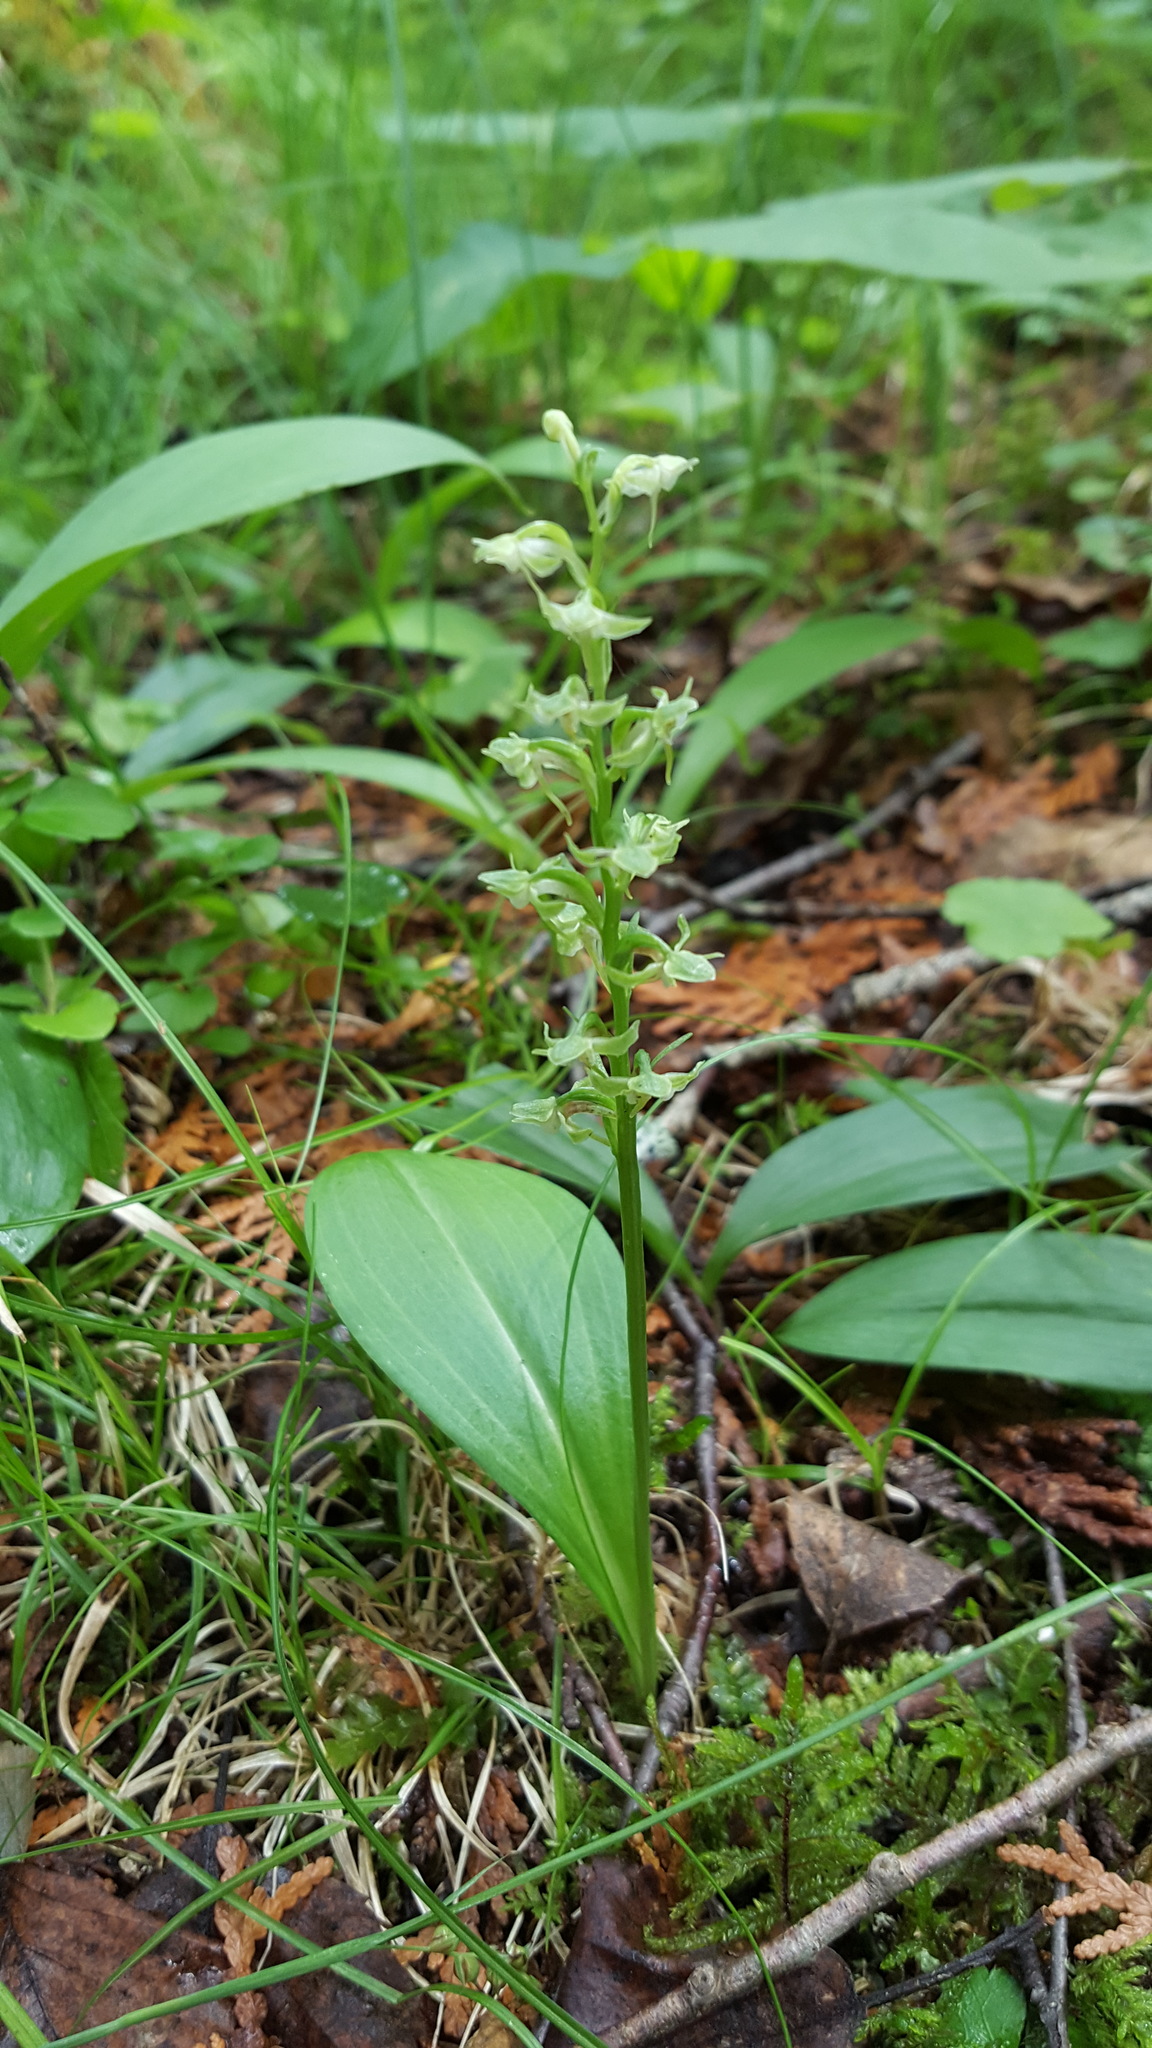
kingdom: Plantae
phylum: Tracheophyta
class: Liliopsida
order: Asparagales
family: Orchidaceae
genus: Platanthera
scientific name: Platanthera obtusata
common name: Blunt bog orchid
